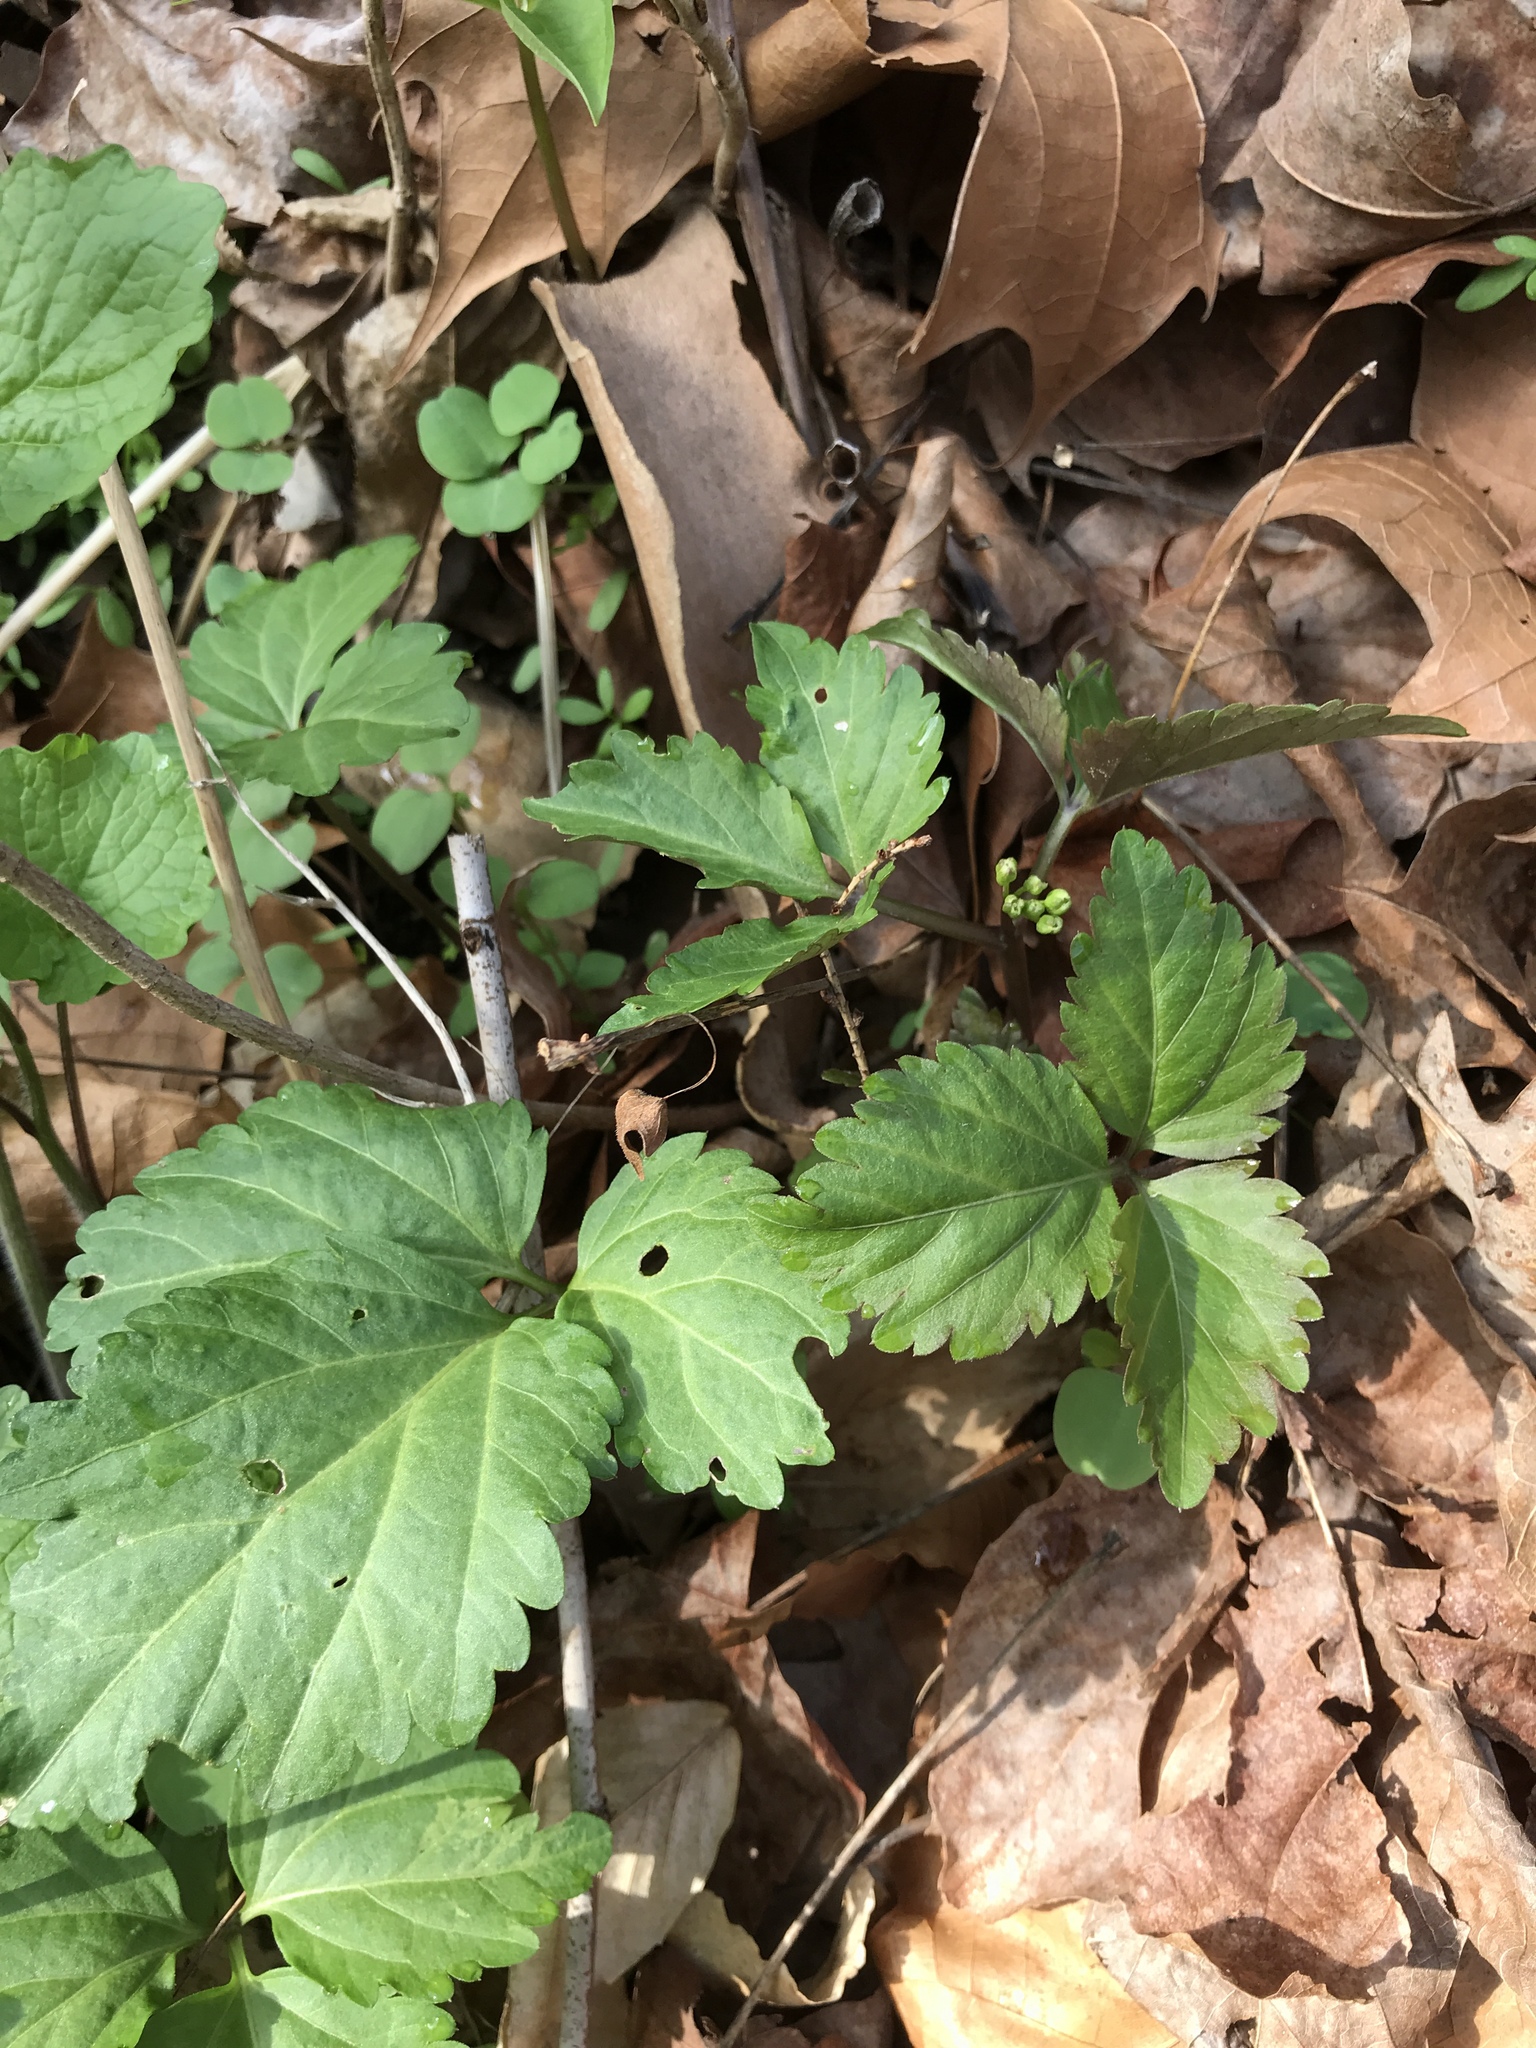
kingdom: Plantae
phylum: Tracheophyta
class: Magnoliopsida
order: Brassicales
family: Brassicaceae
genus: Cardamine
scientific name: Cardamine diphylla
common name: Broad-leaved toothwort
